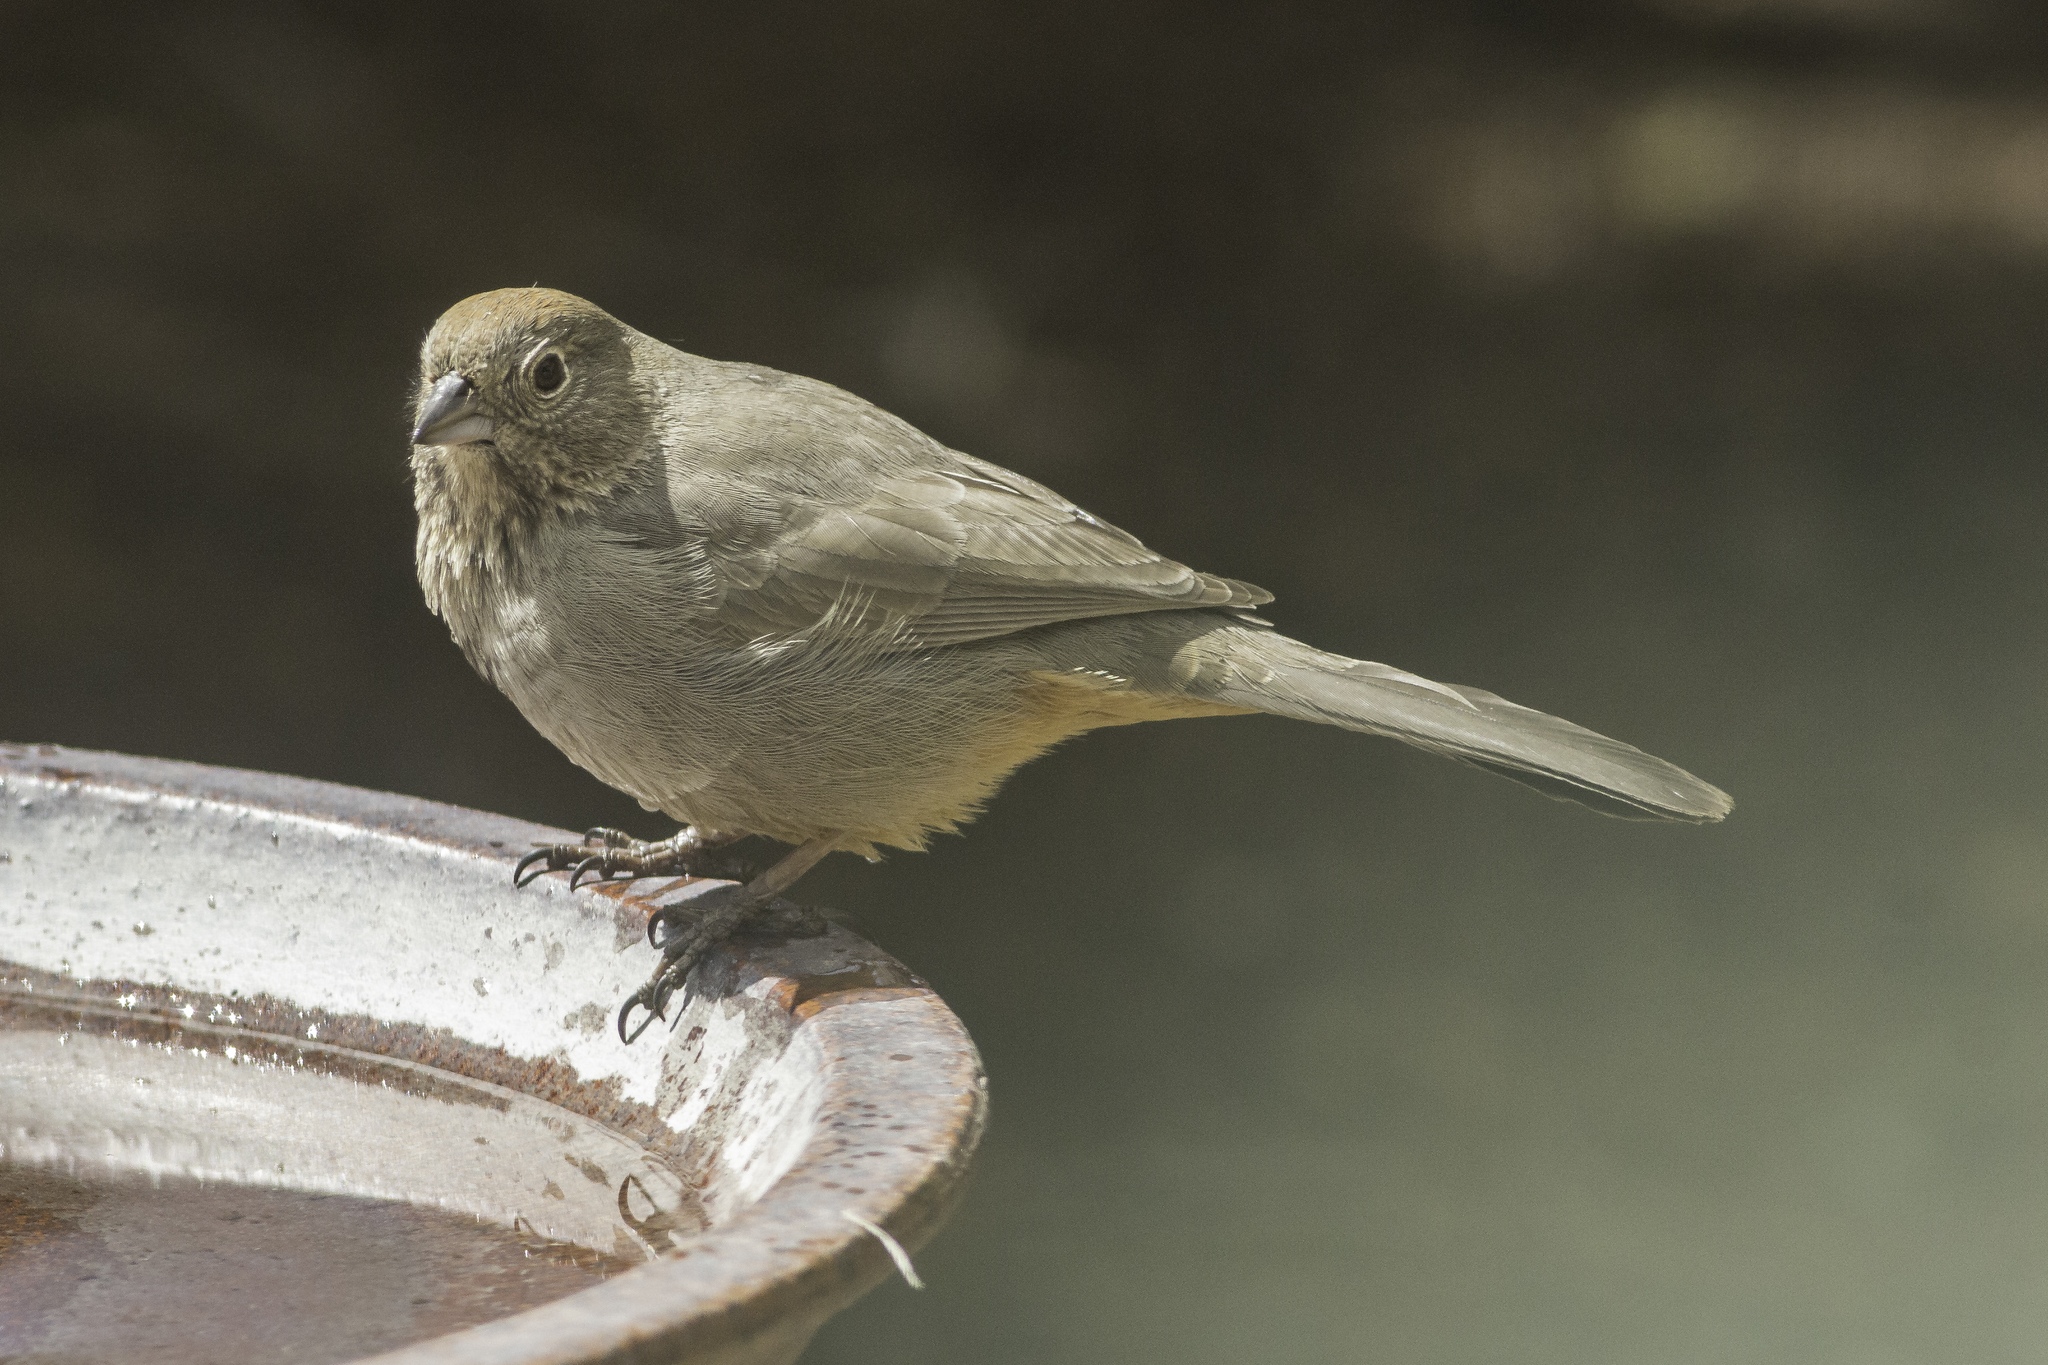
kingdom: Animalia
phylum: Chordata
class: Aves
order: Passeriformes
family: Passerellidae
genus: Melozone
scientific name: Melozone fusca
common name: Canyon towhee
